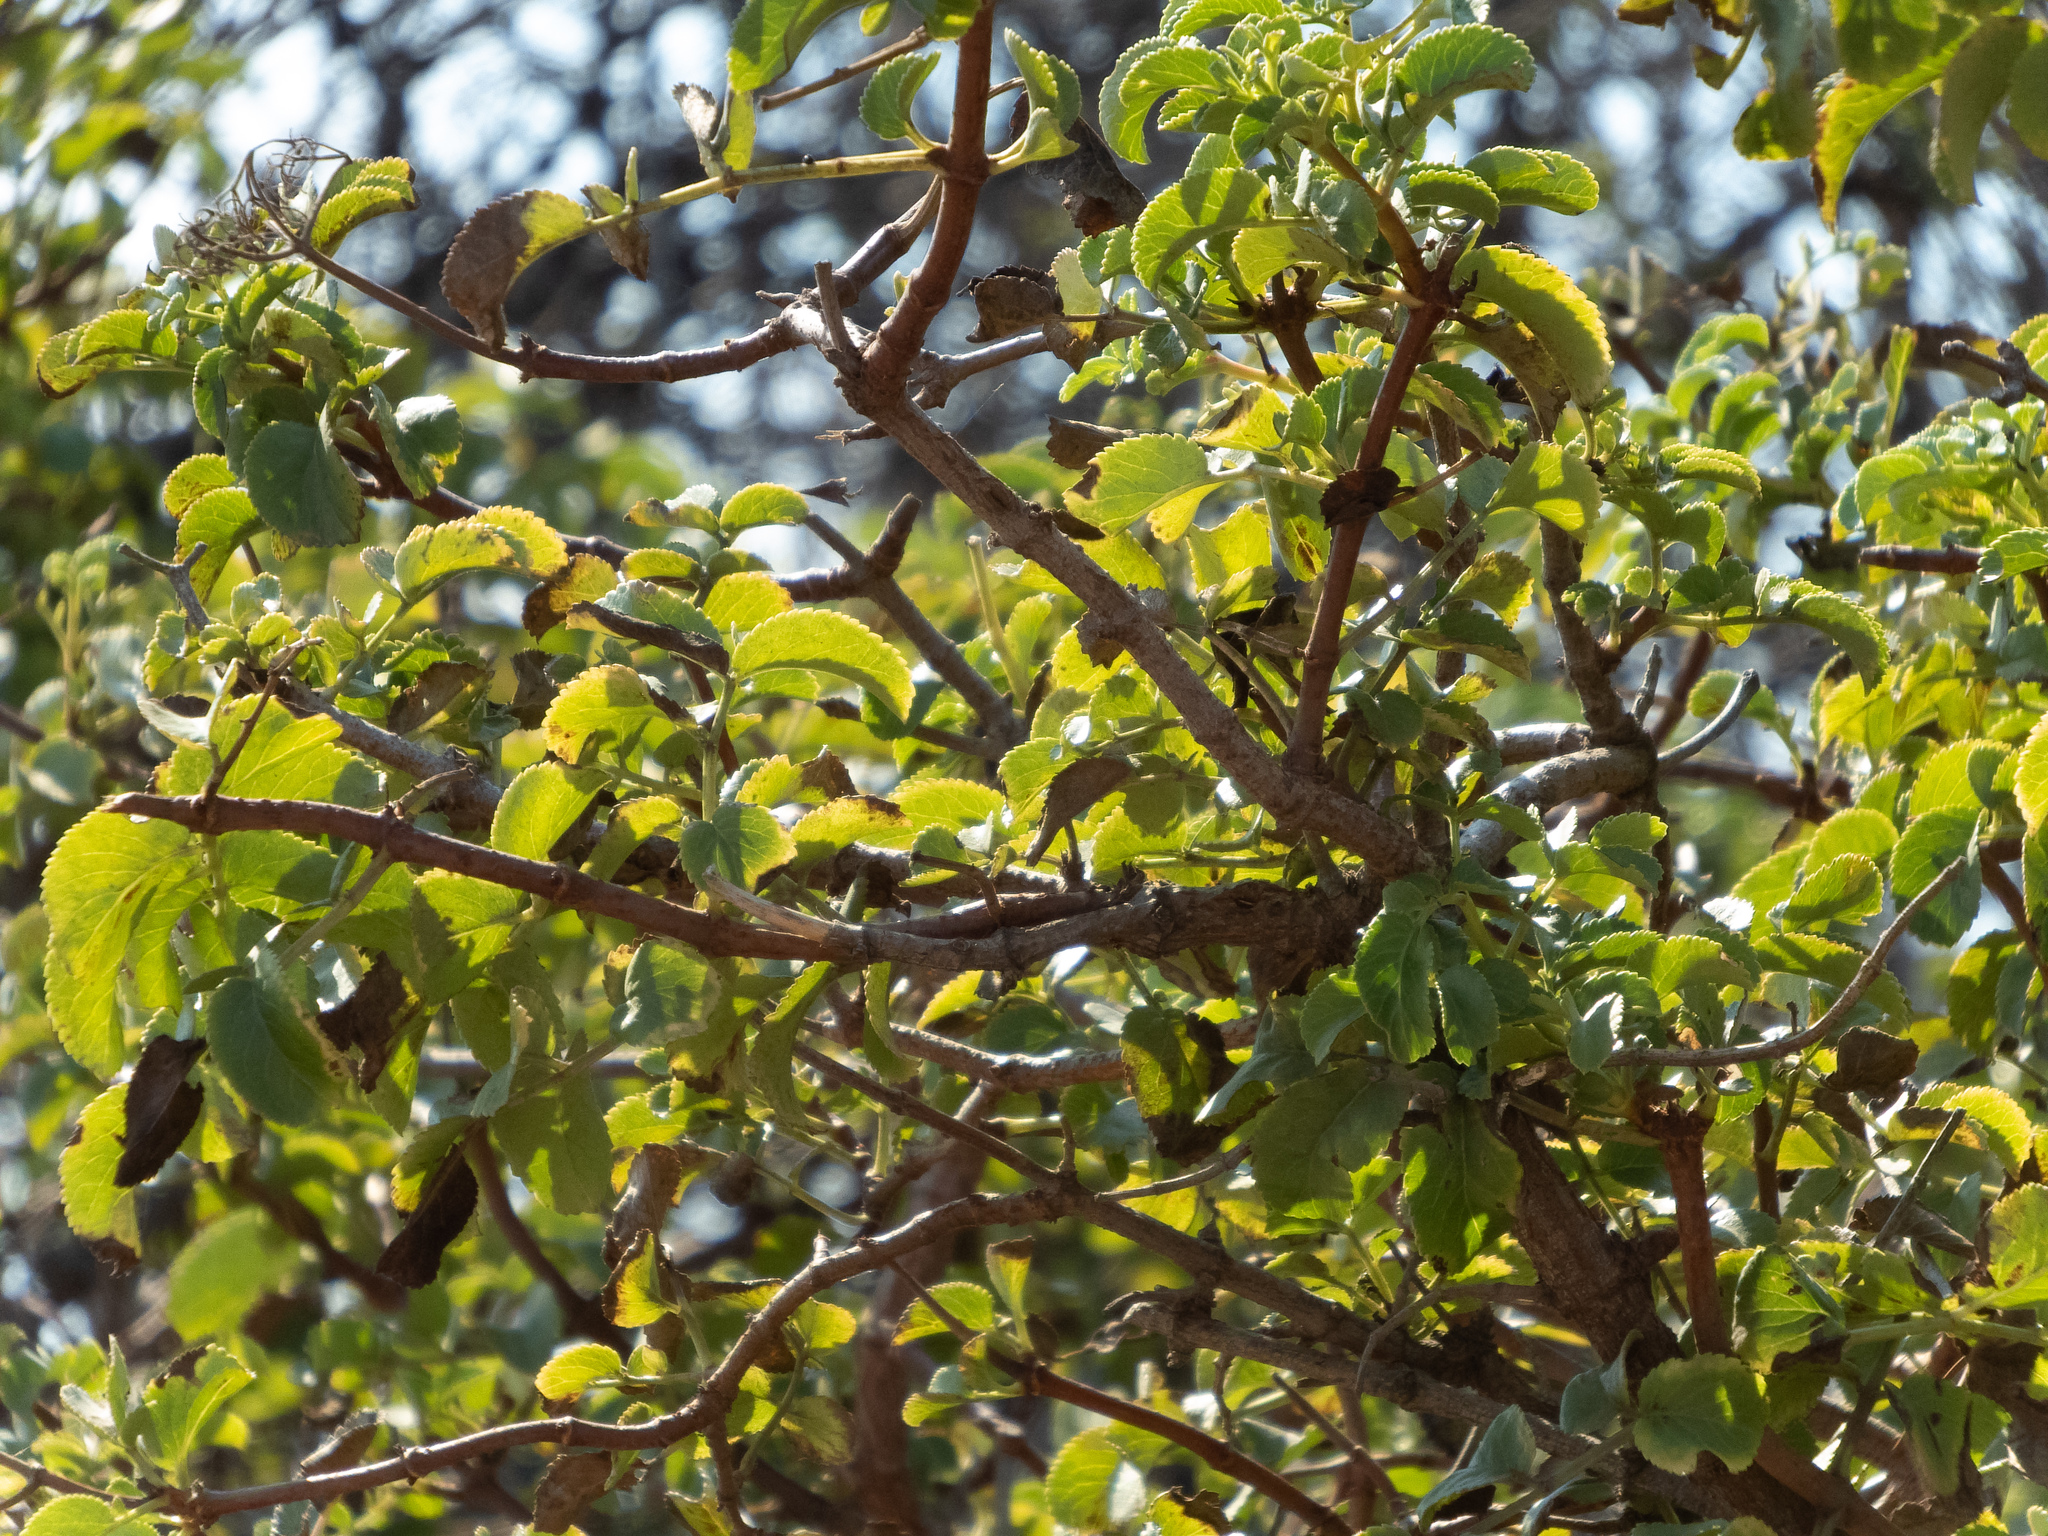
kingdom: Plantae
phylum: Tracheophyta
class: Magnoliopsida
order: Dipsacales
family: Viburnaceae
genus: Sambucus
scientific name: Sambucus cerulea
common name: Blue elder
